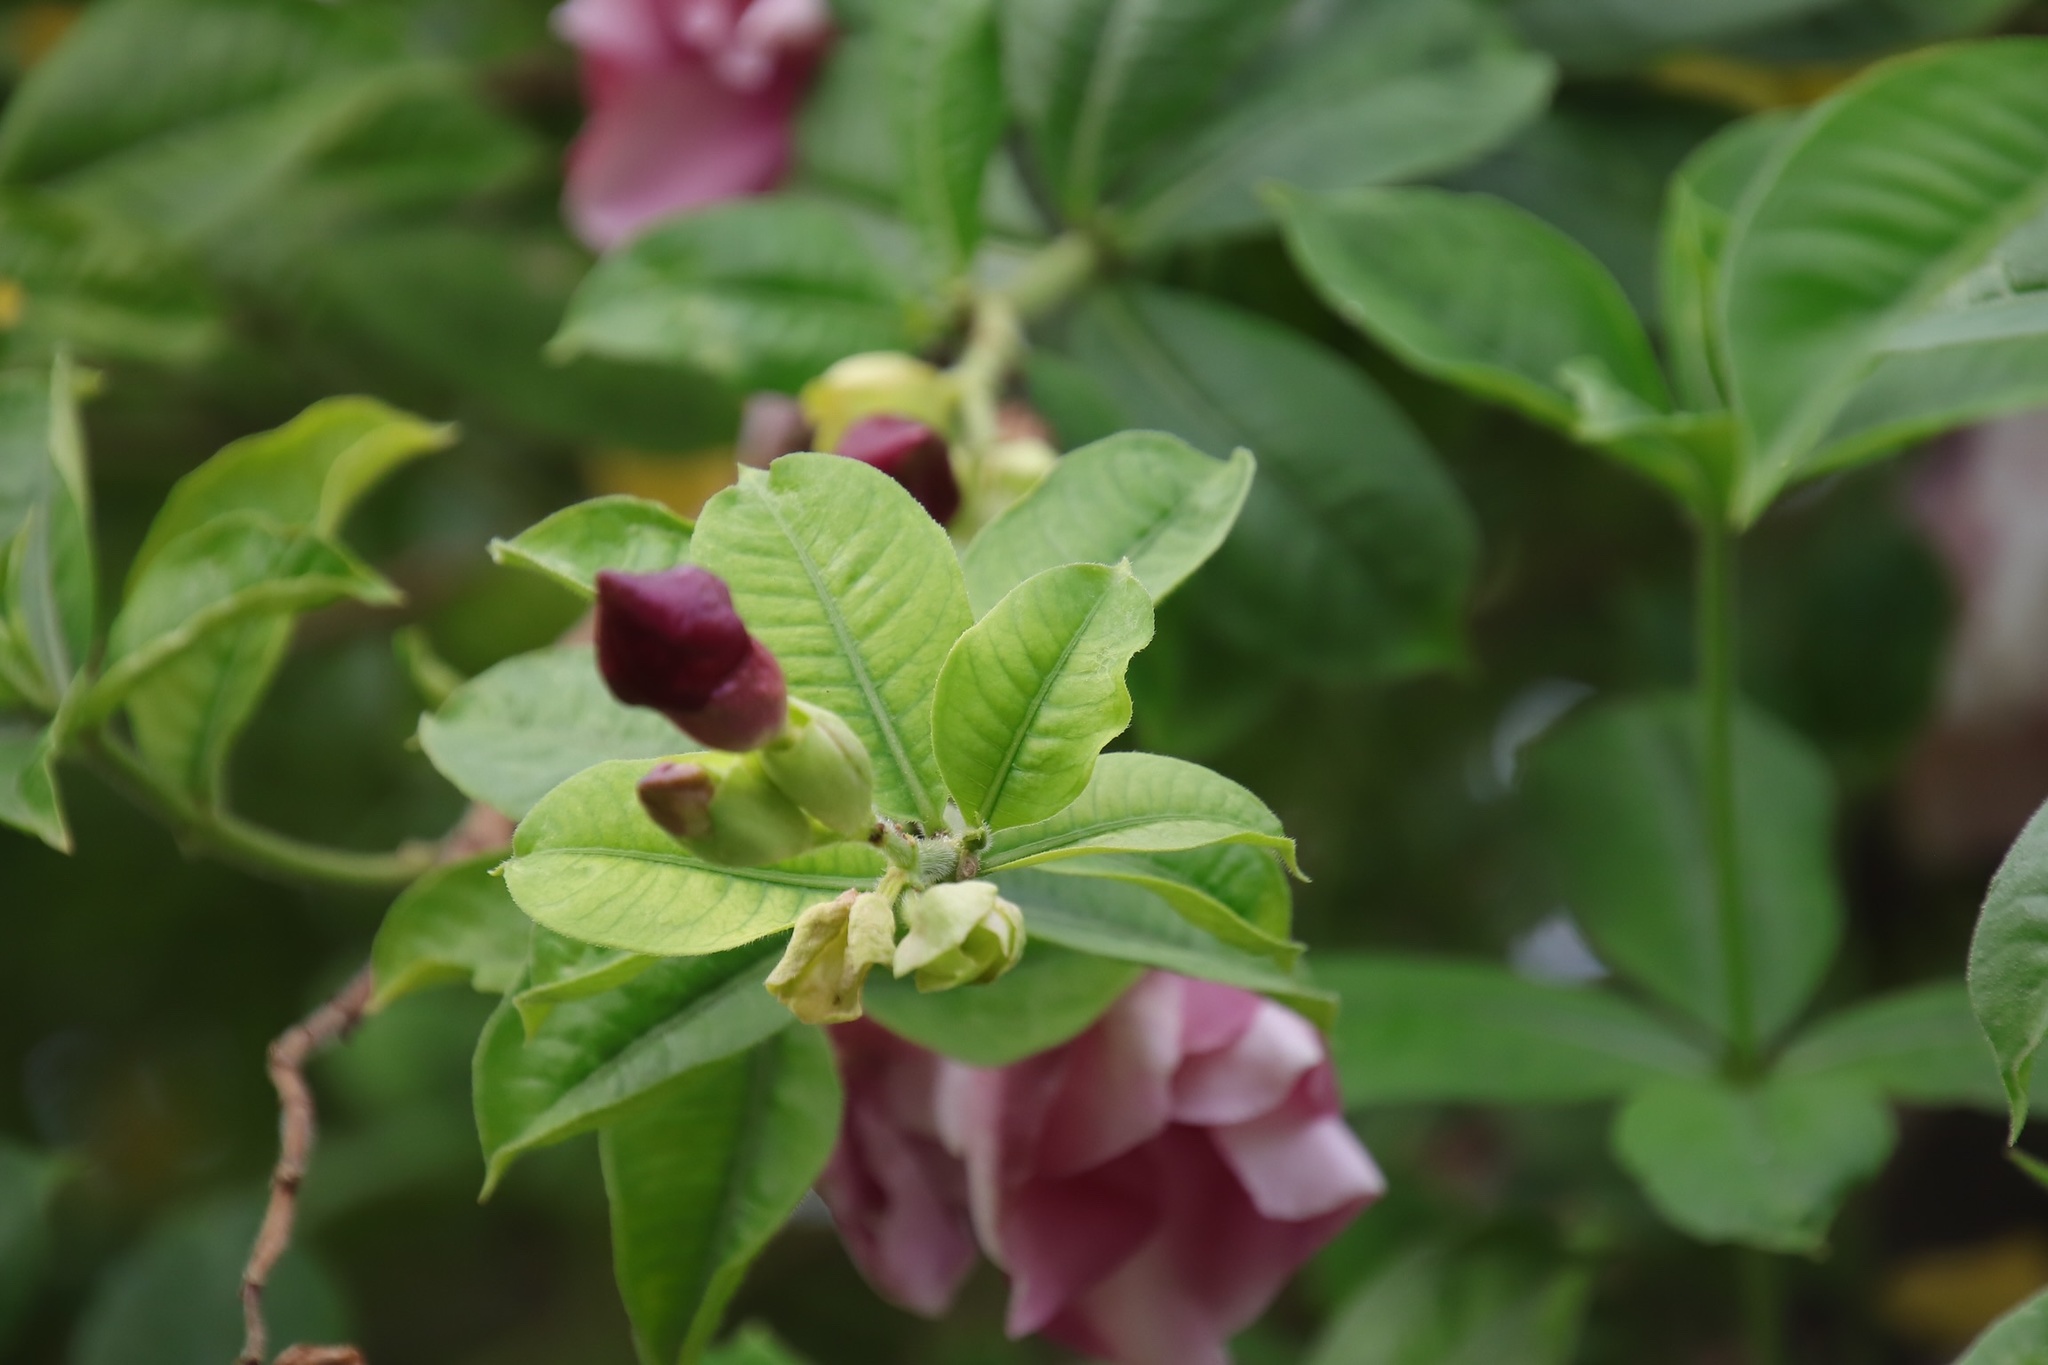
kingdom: Plantae
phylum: Tracheophyta
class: Magnoliopsida
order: Gentianales
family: Apocynaceae
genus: Allamanda
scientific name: Allamanda blanchetii
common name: Purple allamanda
